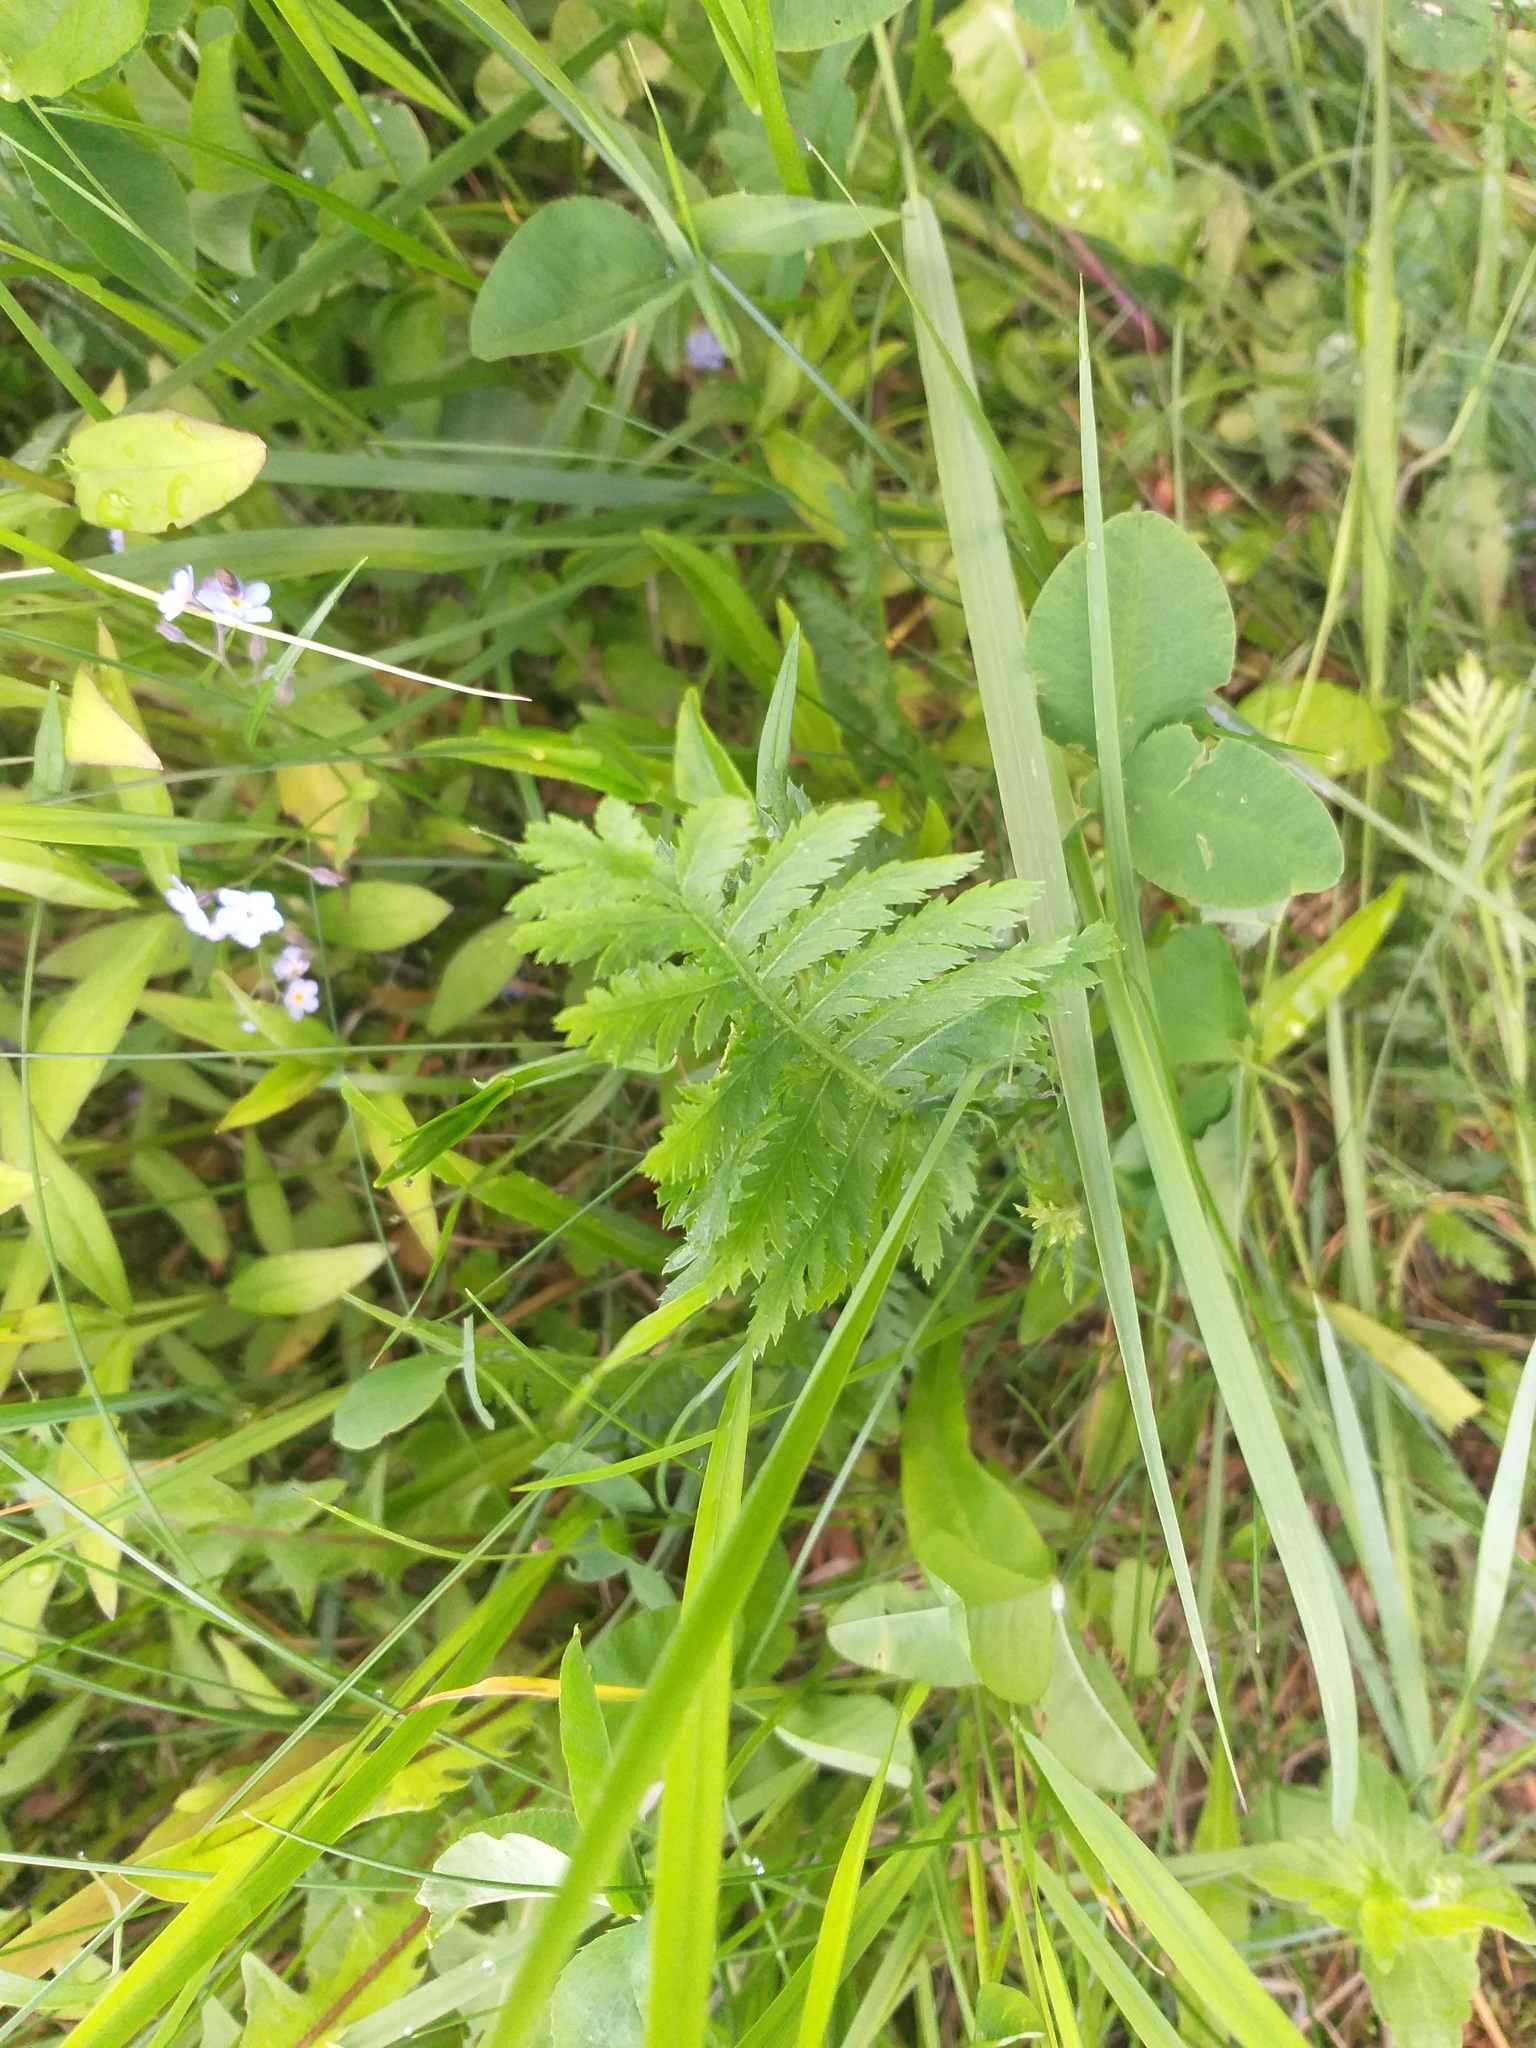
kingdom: Plantae
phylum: Tracheophyta
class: Magnoliopsida
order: Asterales
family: Asteraceae
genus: Tanacetum
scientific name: Tanacetum vulgare
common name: Common tansy
